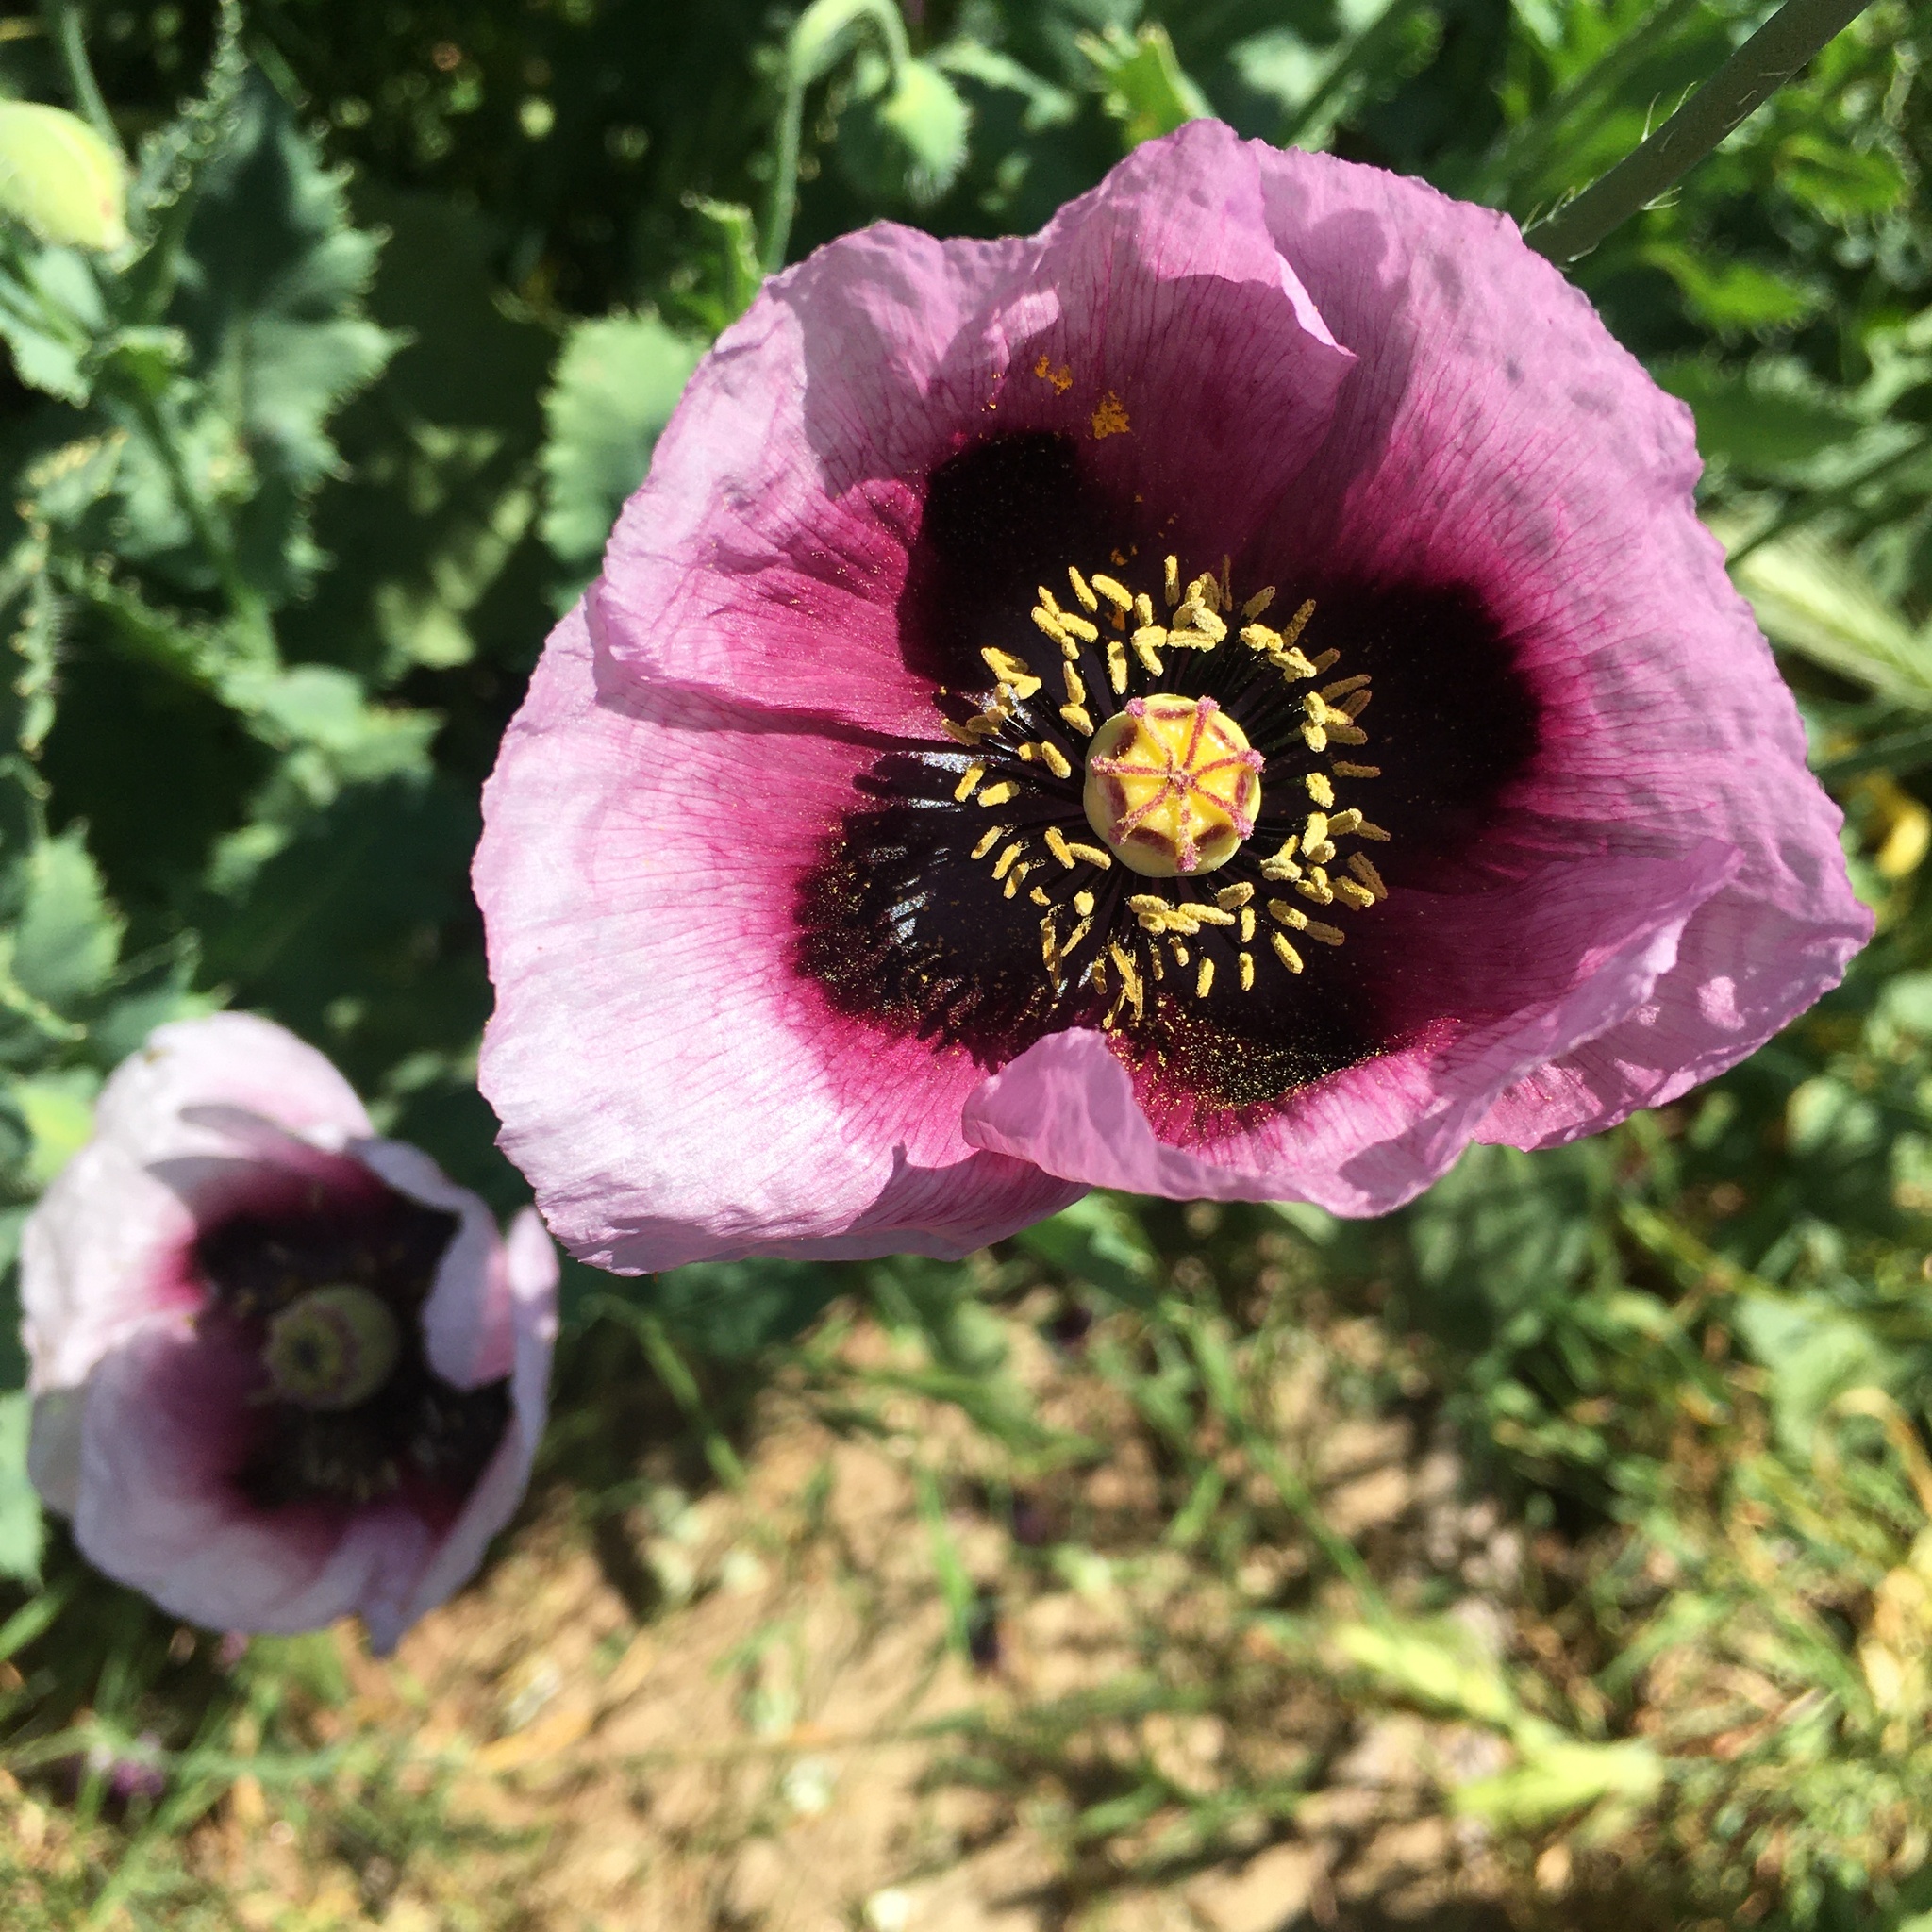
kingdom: Plantae
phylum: Tracheophyta
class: Magnoliopsida
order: Ranunculales
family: Papaveraceae
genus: Papaver
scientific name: Papaver somniferum
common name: Opium poppy
